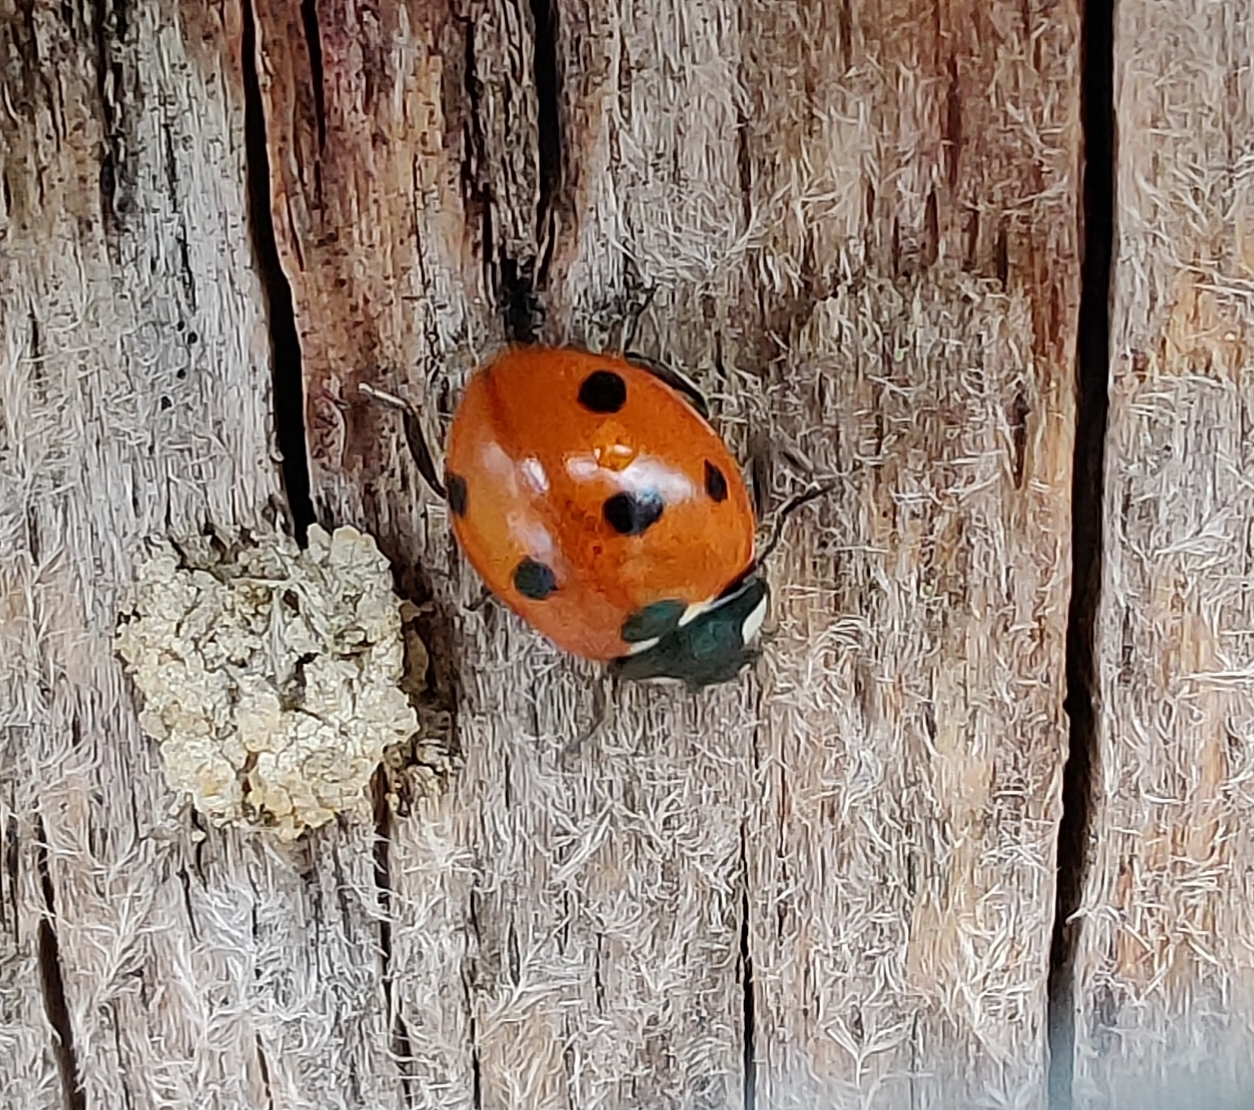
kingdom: Animalia
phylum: Arthropoda
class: Insecta
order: Coleoptera
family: Coccinellidae
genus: Coccinella
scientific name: Coccinella septempunctata
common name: Sevenspotted lady beetle
